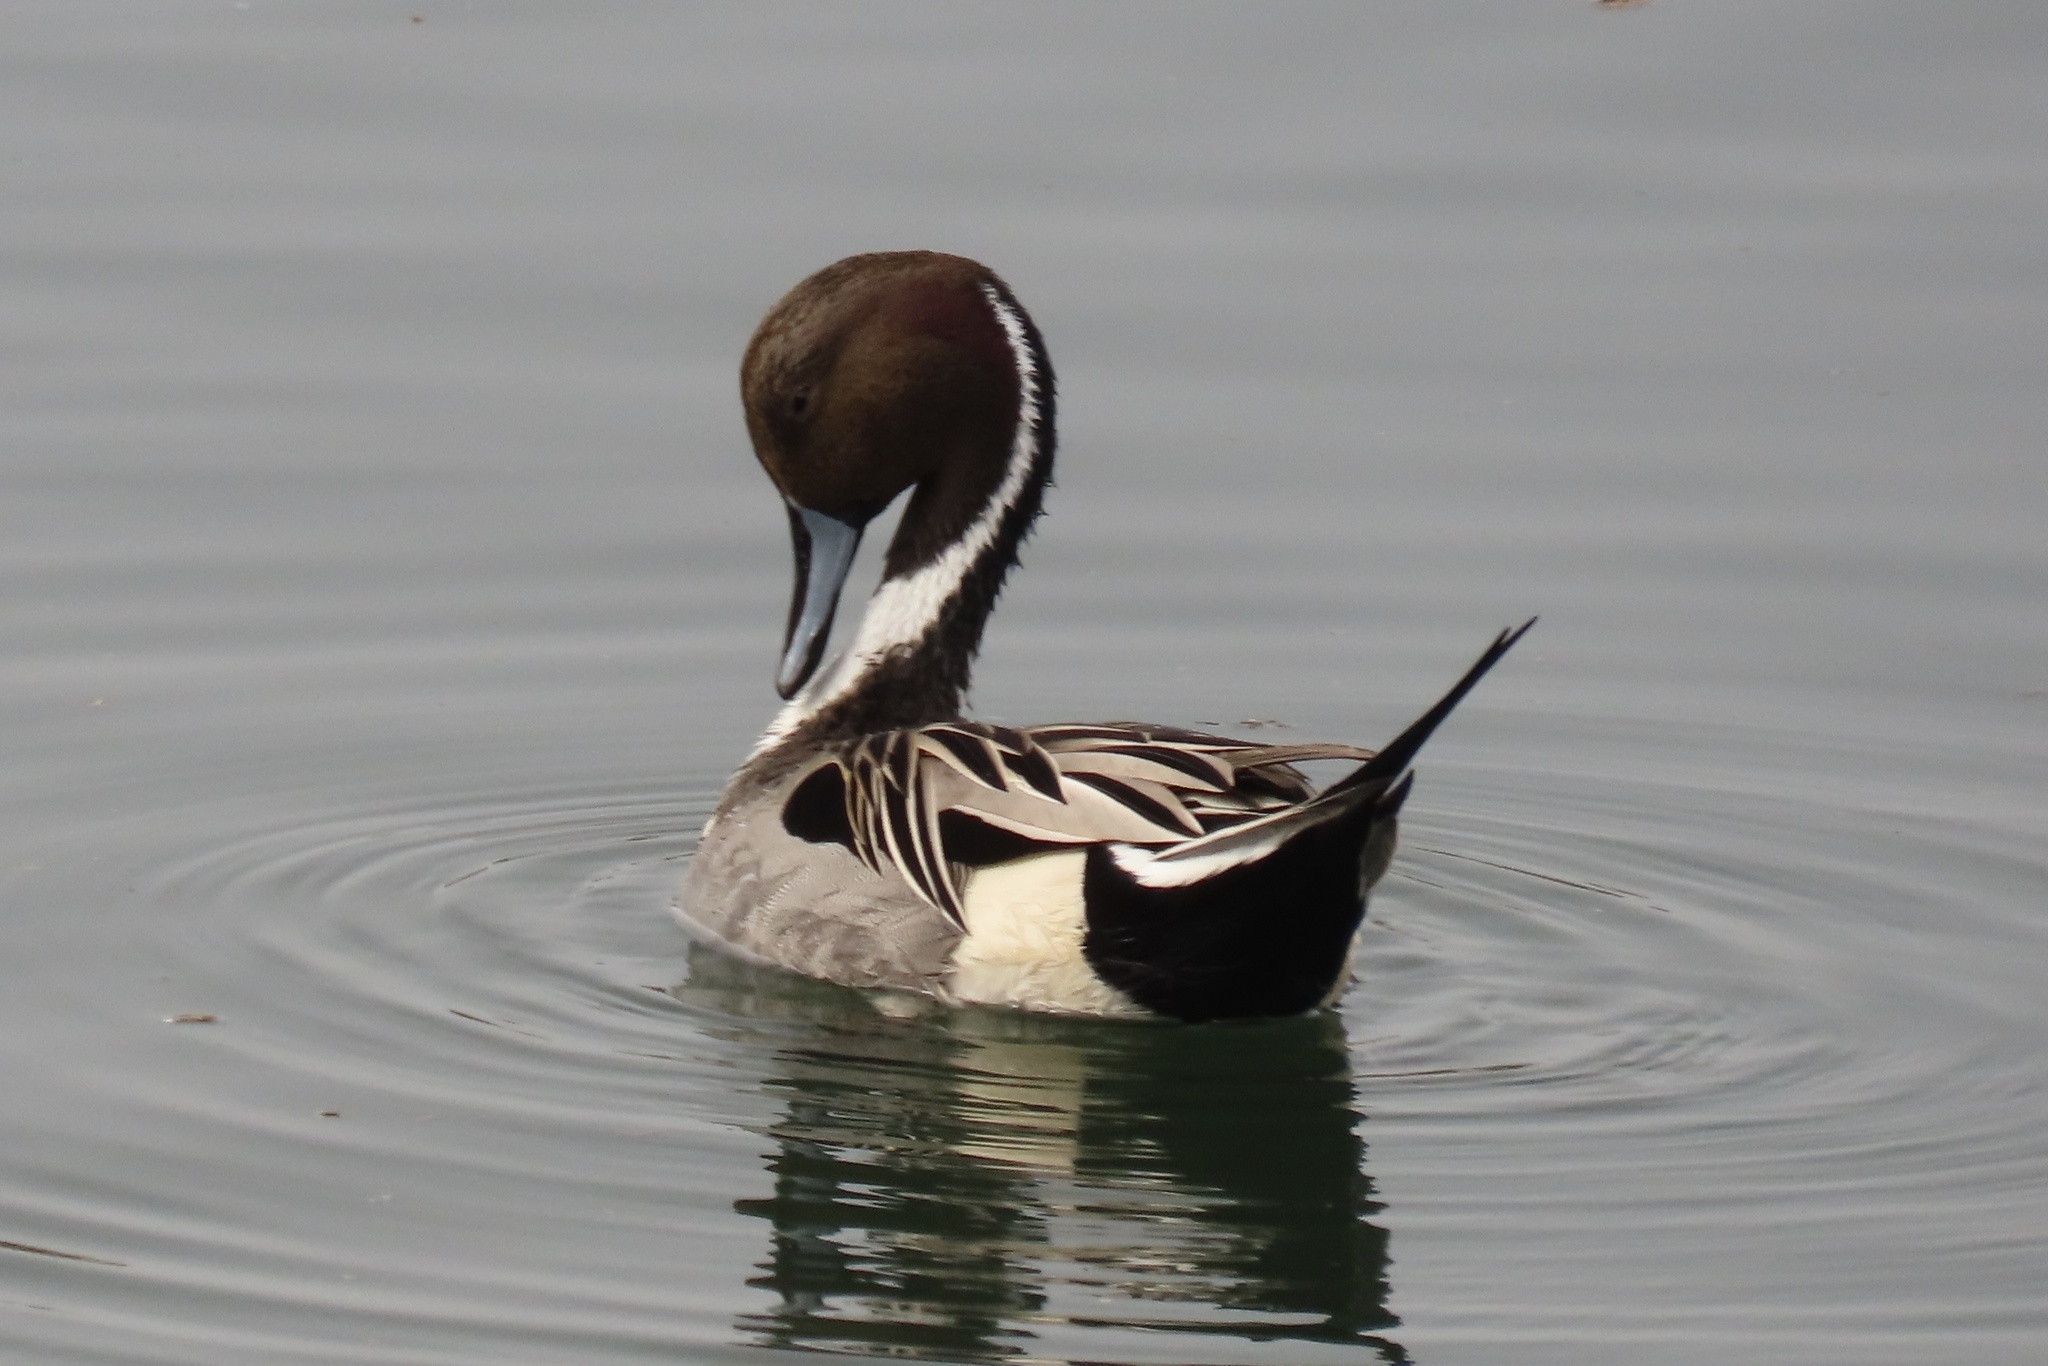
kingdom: Animalia
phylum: Chordata
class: Aves
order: Anseriformes
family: Anatidae
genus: Anas
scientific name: Anas acuta
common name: Northern pintail
